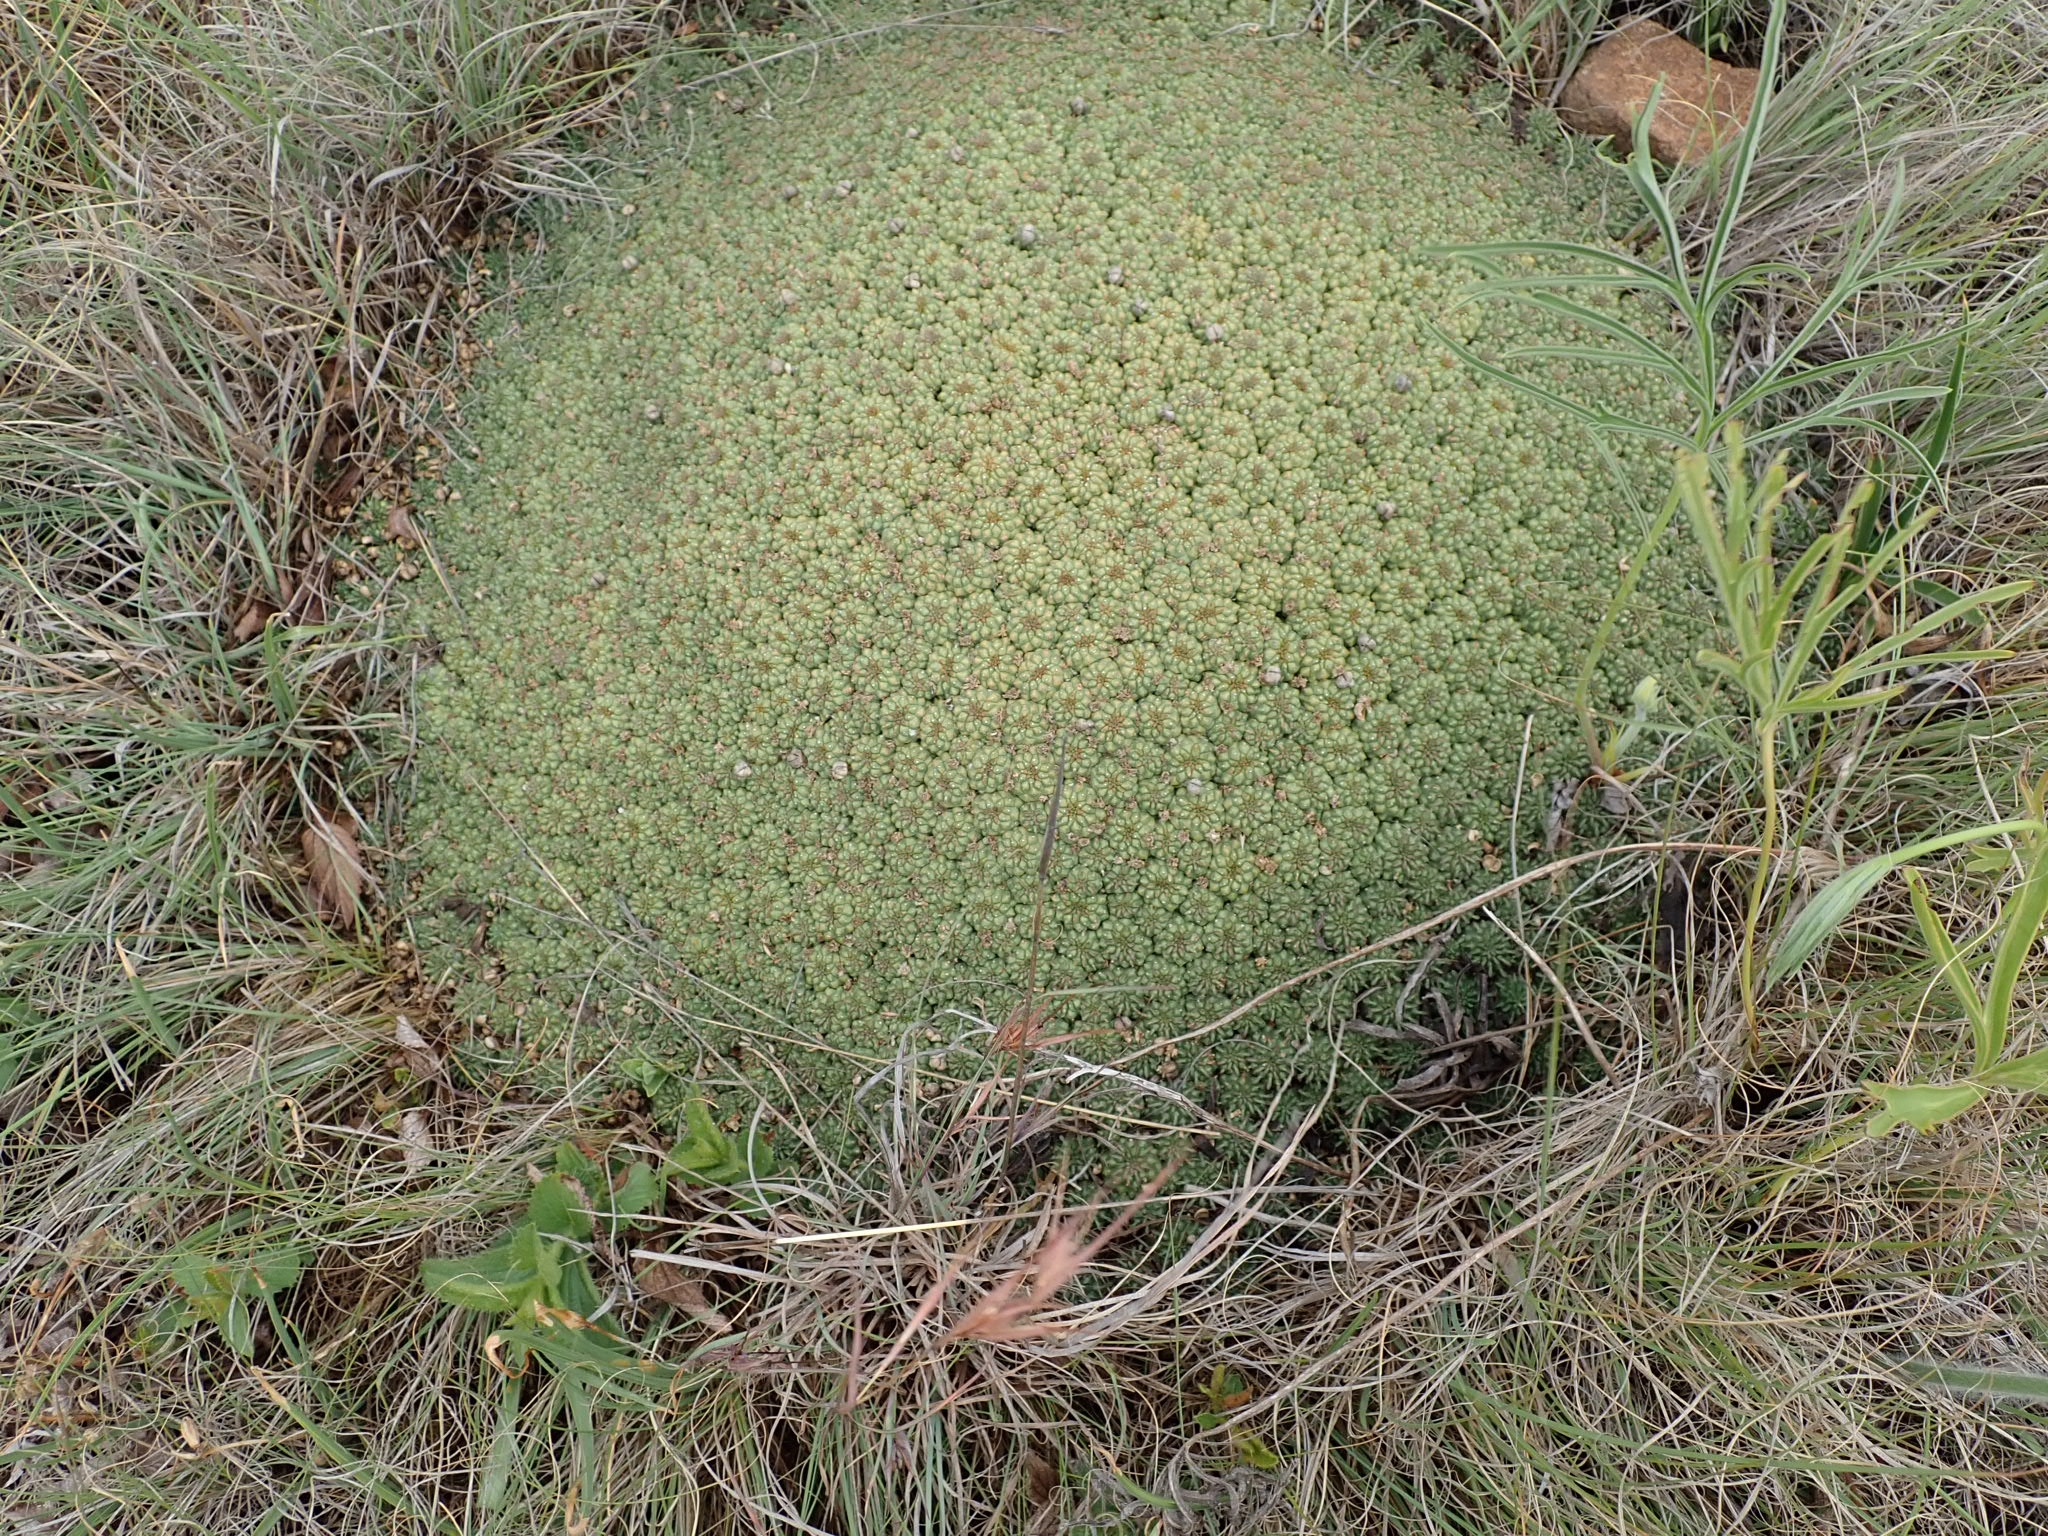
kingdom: Plantae
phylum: Tracheophyta
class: Magnoliopsida
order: Malpighiales
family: Euphorbiaceae
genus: Euphorbia
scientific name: Euphorbia clavarioides
